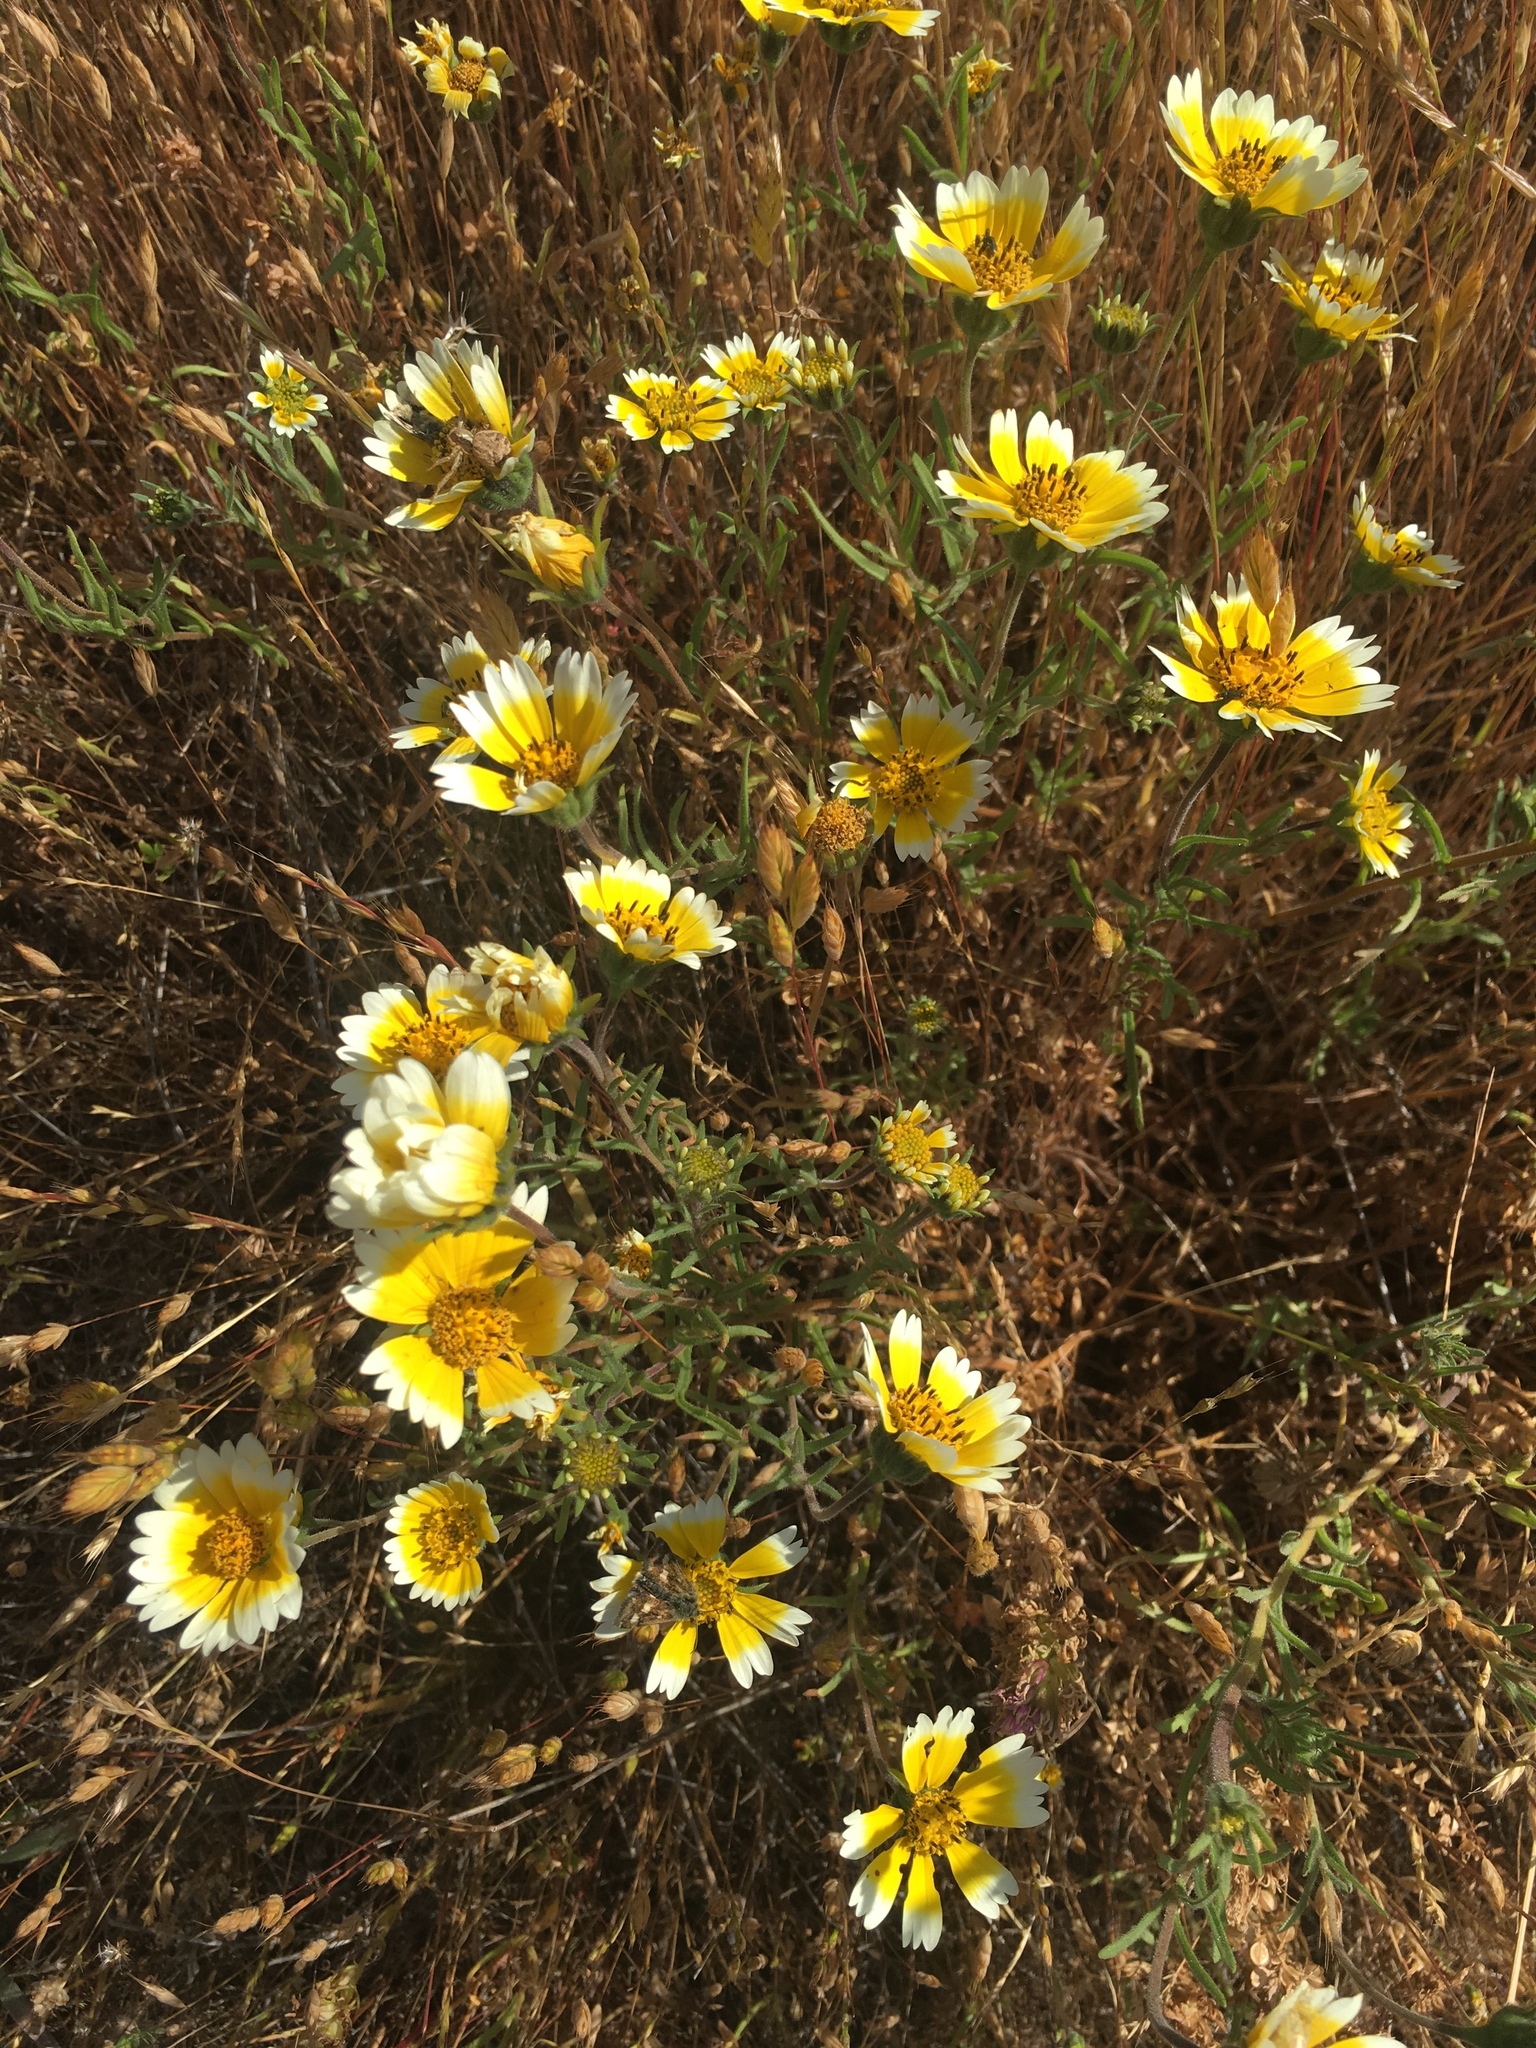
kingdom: Plantae
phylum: Tracheophyta
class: Magnoliopsida
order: Asterales
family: Asteraceae
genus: Layia
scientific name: Layia platyglossa
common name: Tidy-tips
